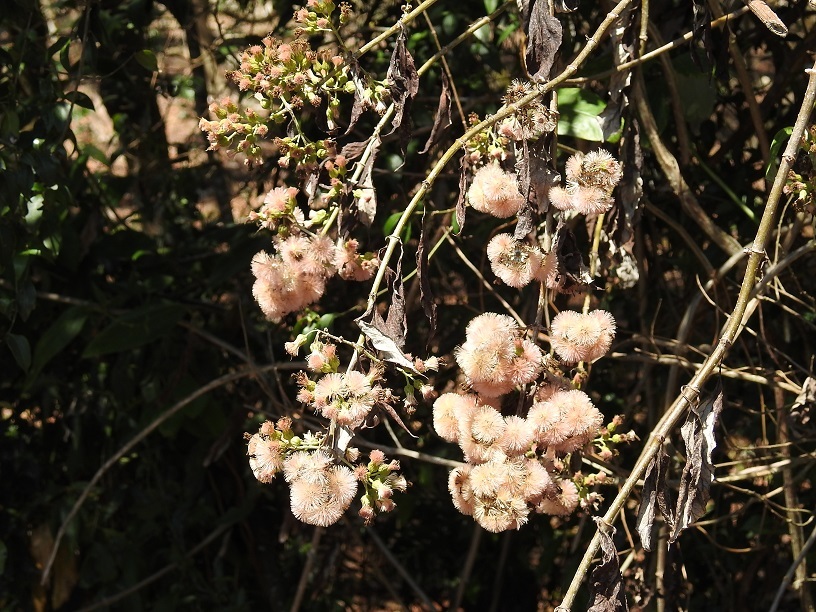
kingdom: Plantae
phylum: Tracheophyta
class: Magnoliopsida
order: Asterales
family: Asteraceae
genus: Sinclairia
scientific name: Sinclairia sericolepis
